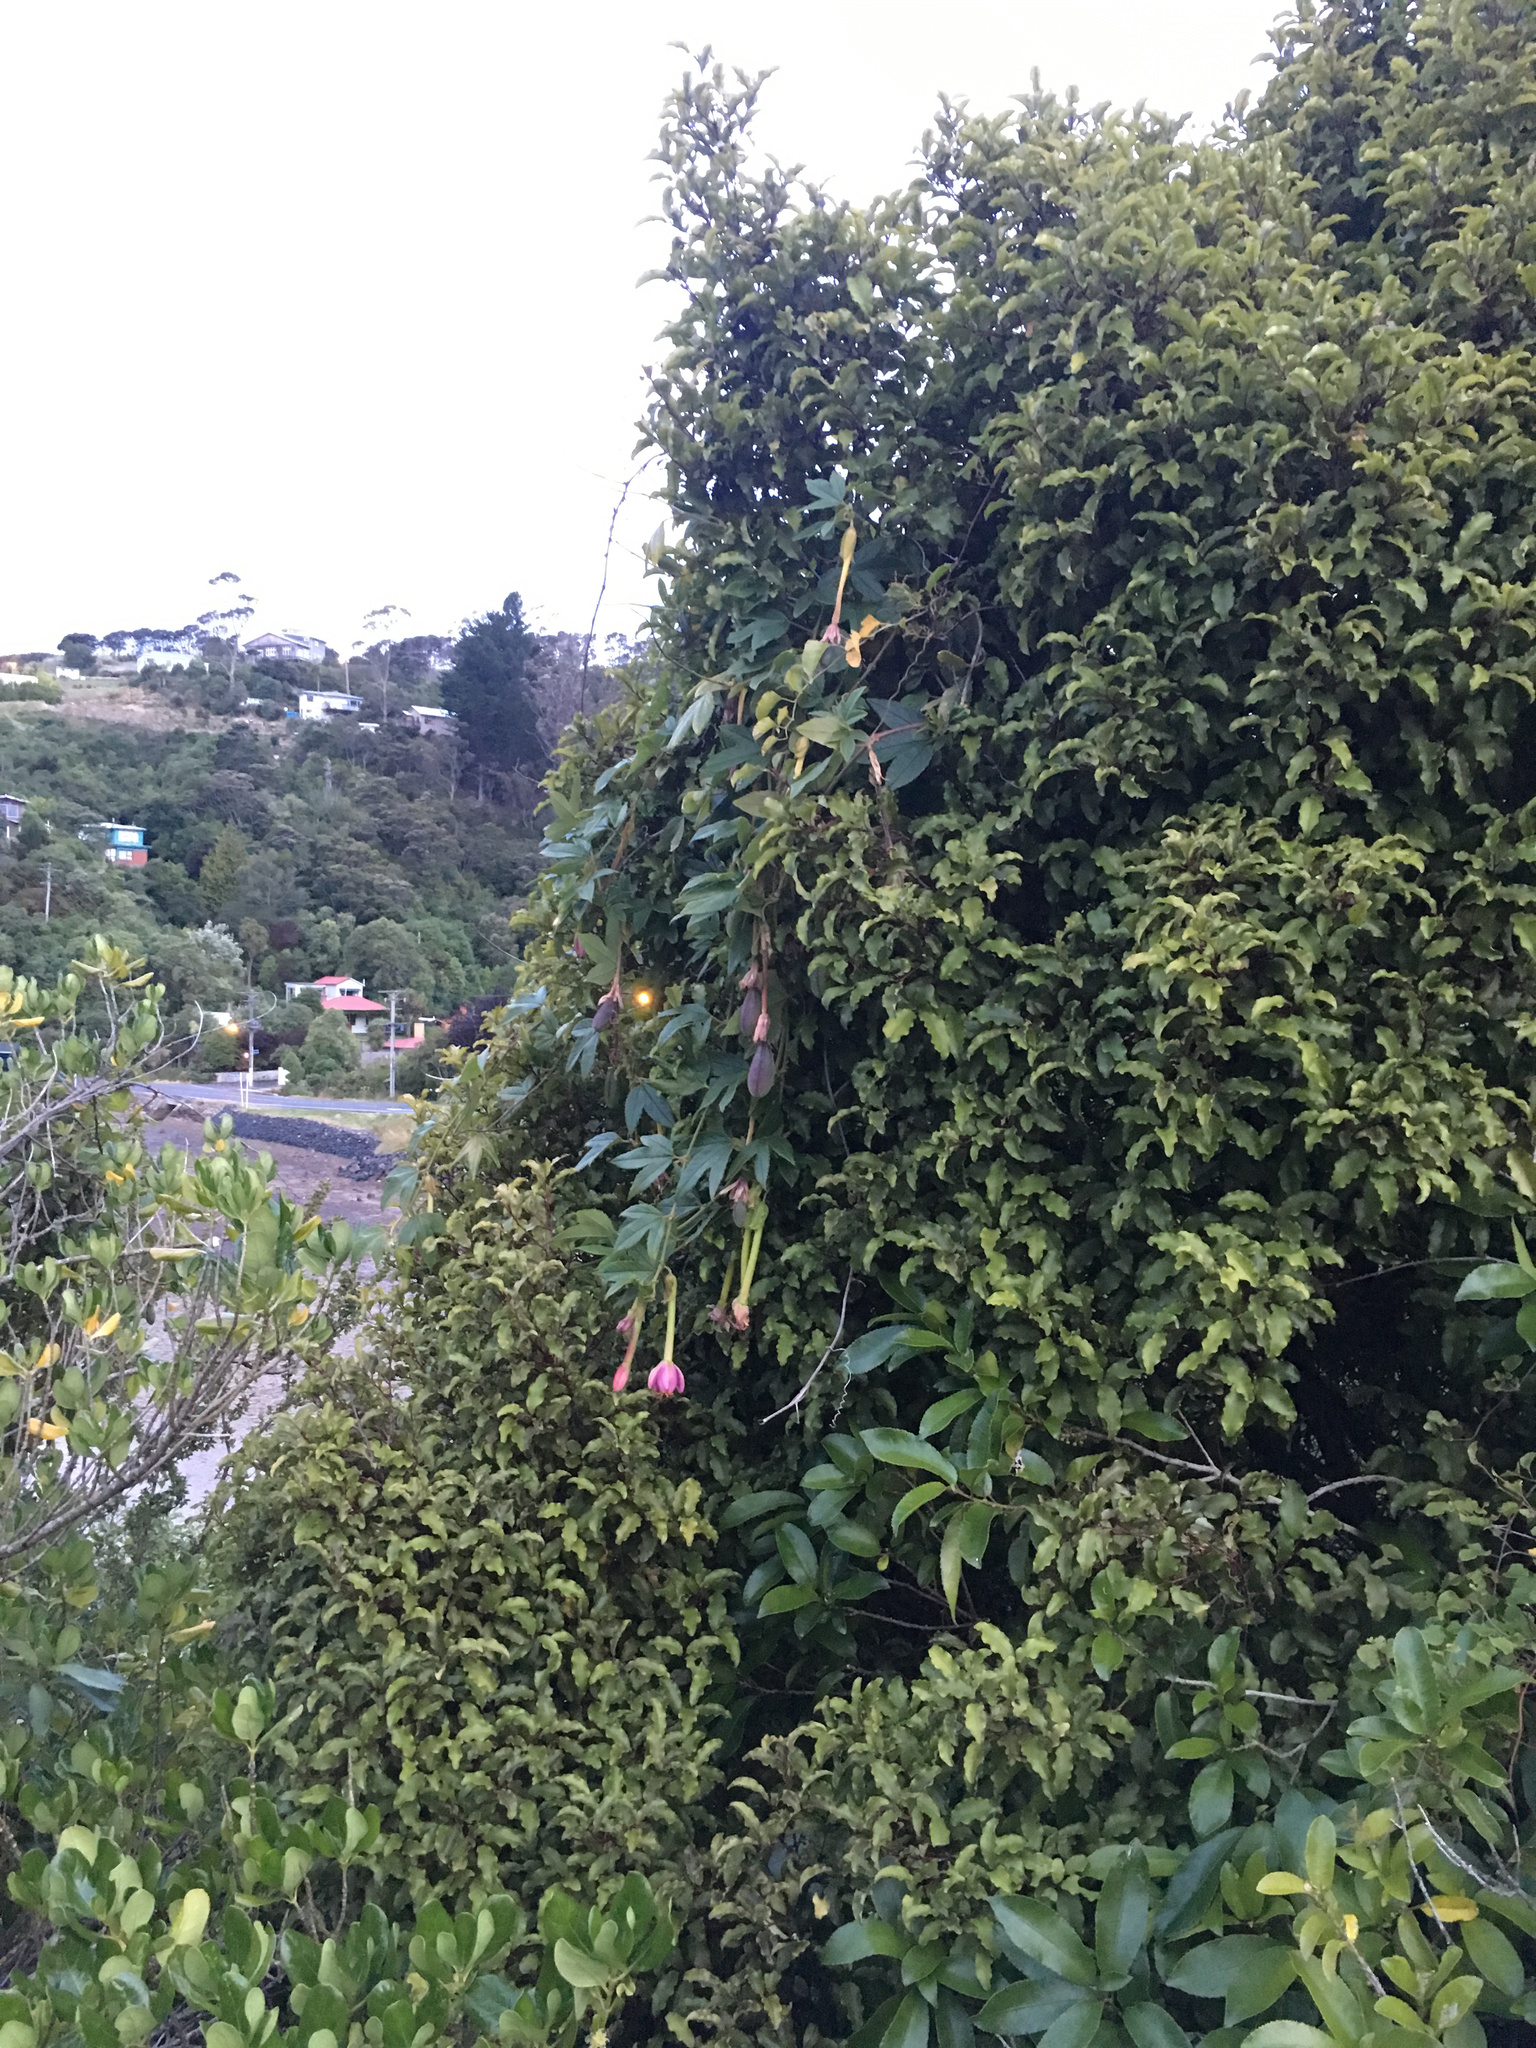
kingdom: Plantae
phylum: Tracheophyta
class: Magnoliopsida
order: Malpighiales
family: Passifloraceae
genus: Passiflora
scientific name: Passiflora tripartita
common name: Banana poka
